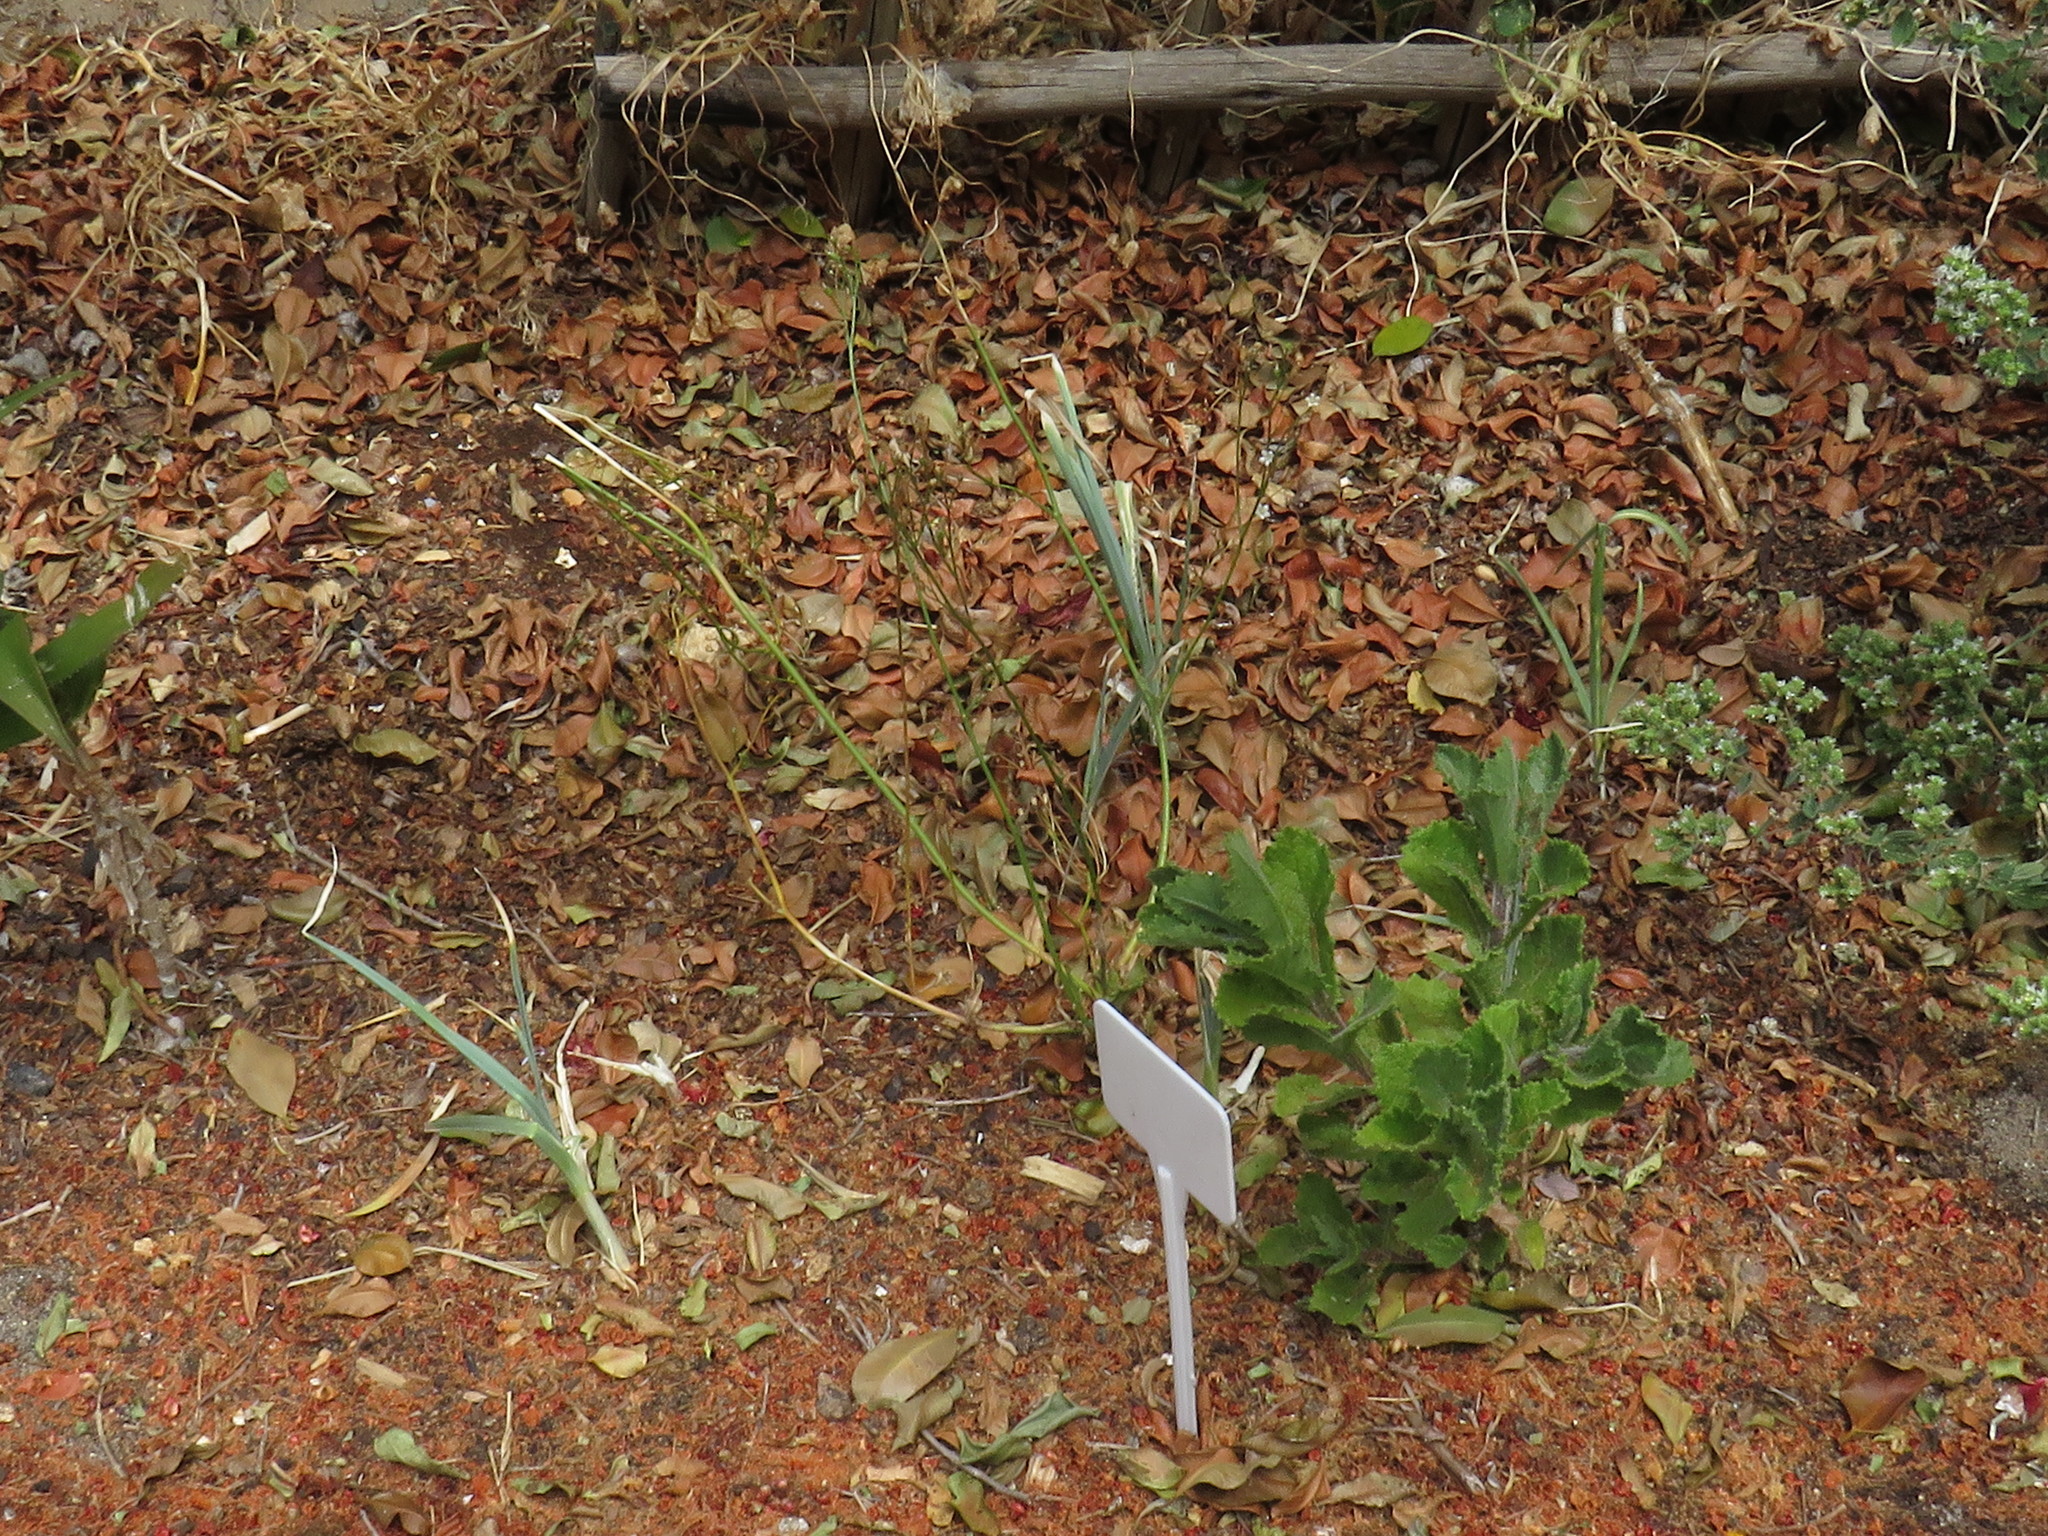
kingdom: Plantae
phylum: Tracheophyta
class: Magnoliopsida
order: Asterales
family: Asteraceae
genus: Senecio
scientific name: Senecio rigidus
